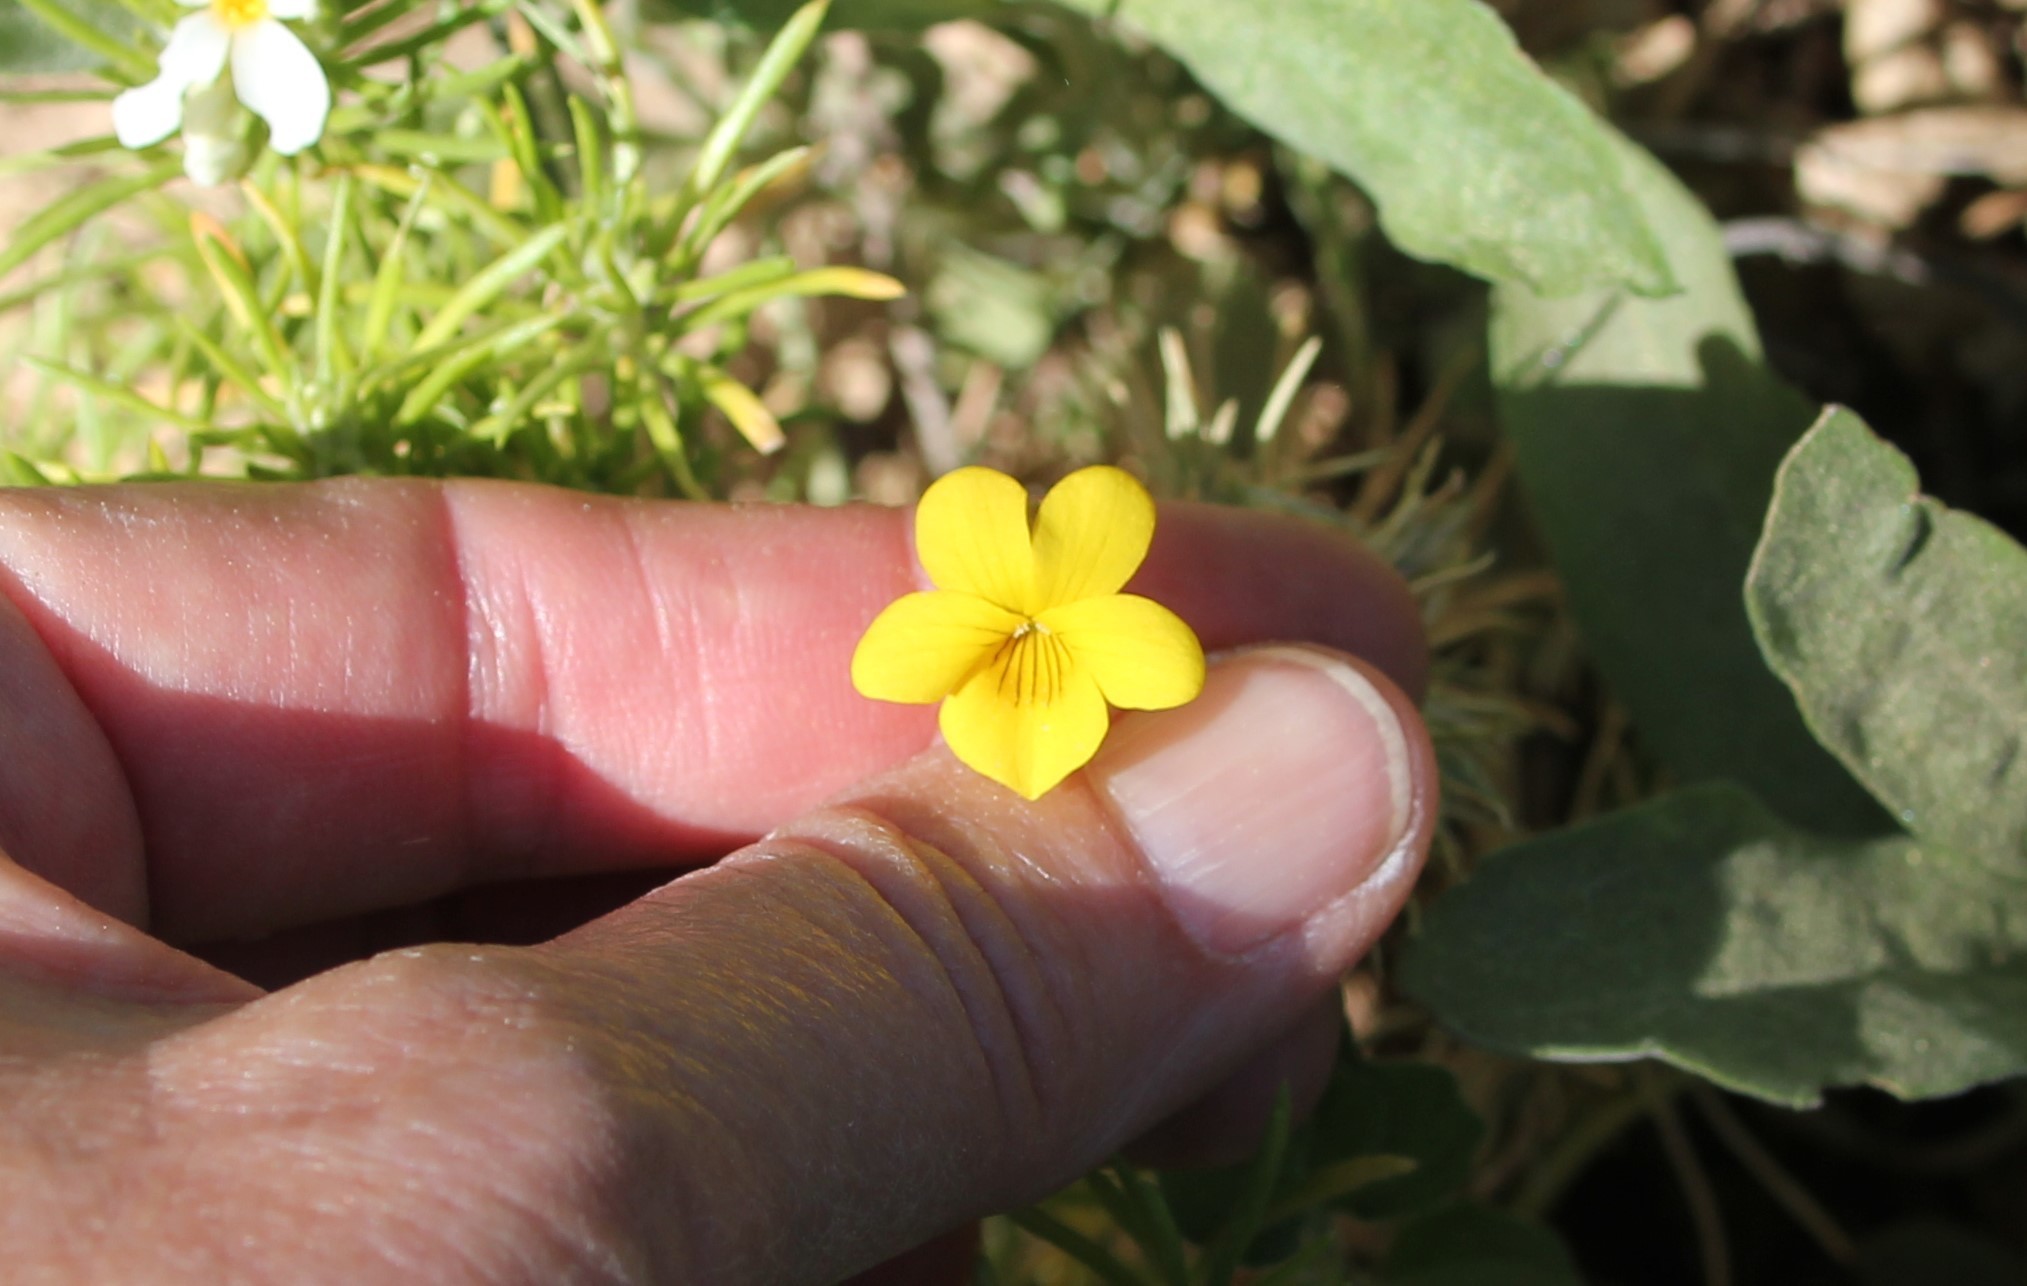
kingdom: Plantae
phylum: Tracheophyta
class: Magnoliopsida
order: Malpighiales
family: Violaceae
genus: Viola
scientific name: Viola purpurea
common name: Pine violet
